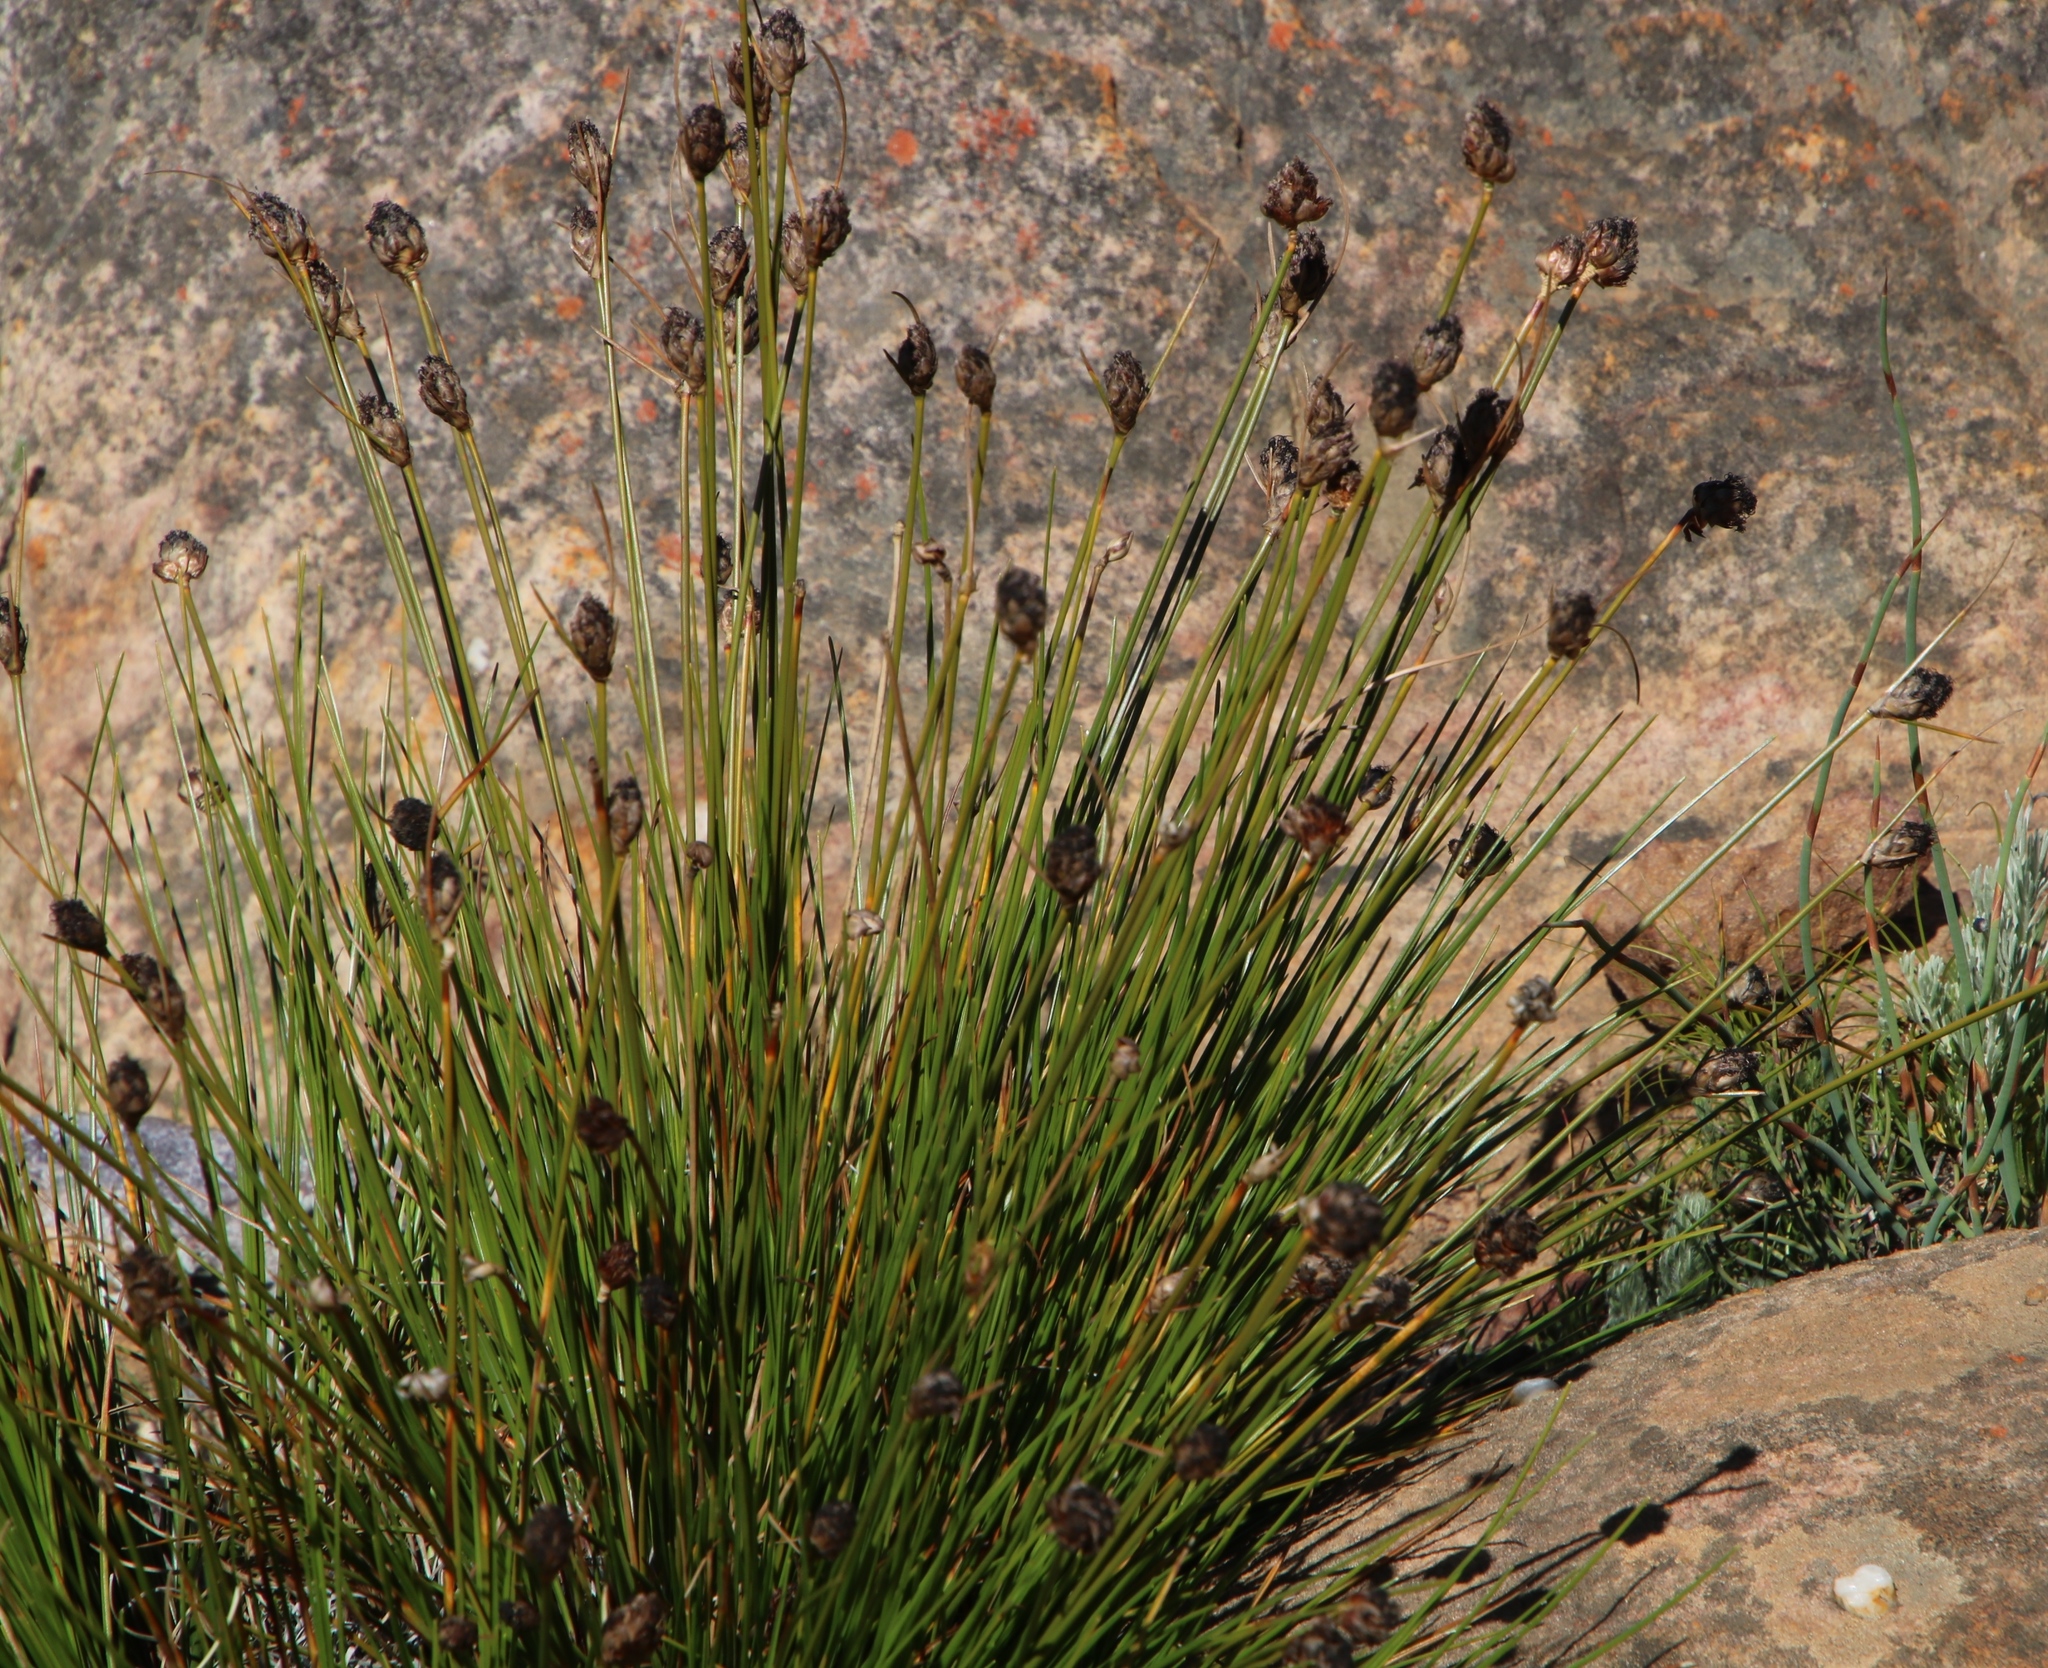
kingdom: Plantae
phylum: Tracheophyta
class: Liliopsida
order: Poales
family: Cyperaceae
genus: Ficinia
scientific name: Ficinia cedarbergensis
